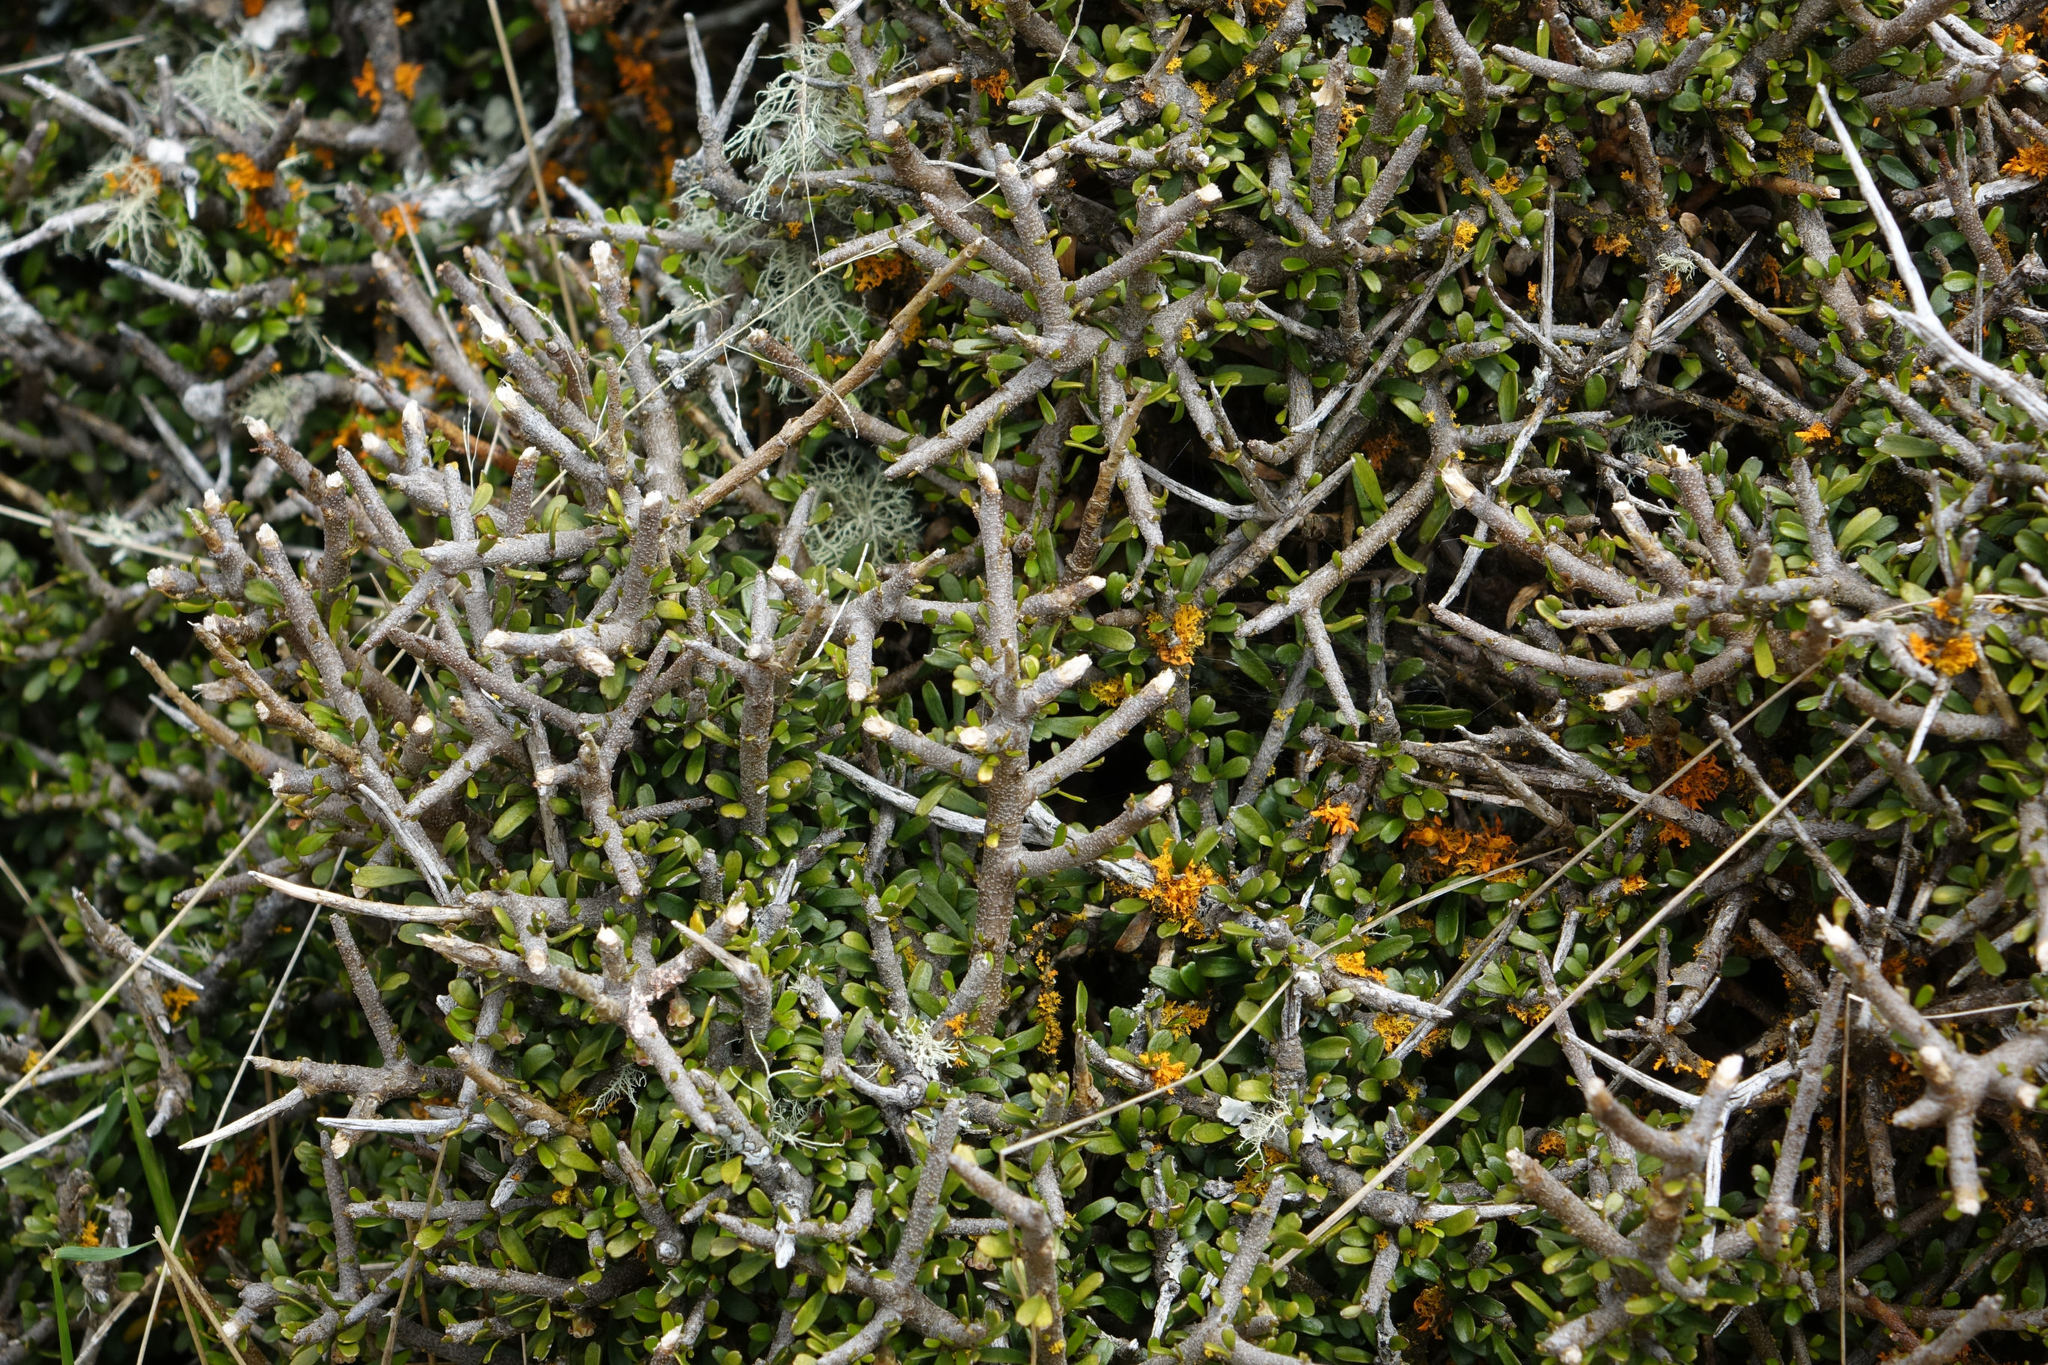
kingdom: Plantae
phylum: Tracheophyta
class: Magnoliopsida
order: Malpighiales
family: Violaceae
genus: Melicytus
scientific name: Melicytus alpinus
